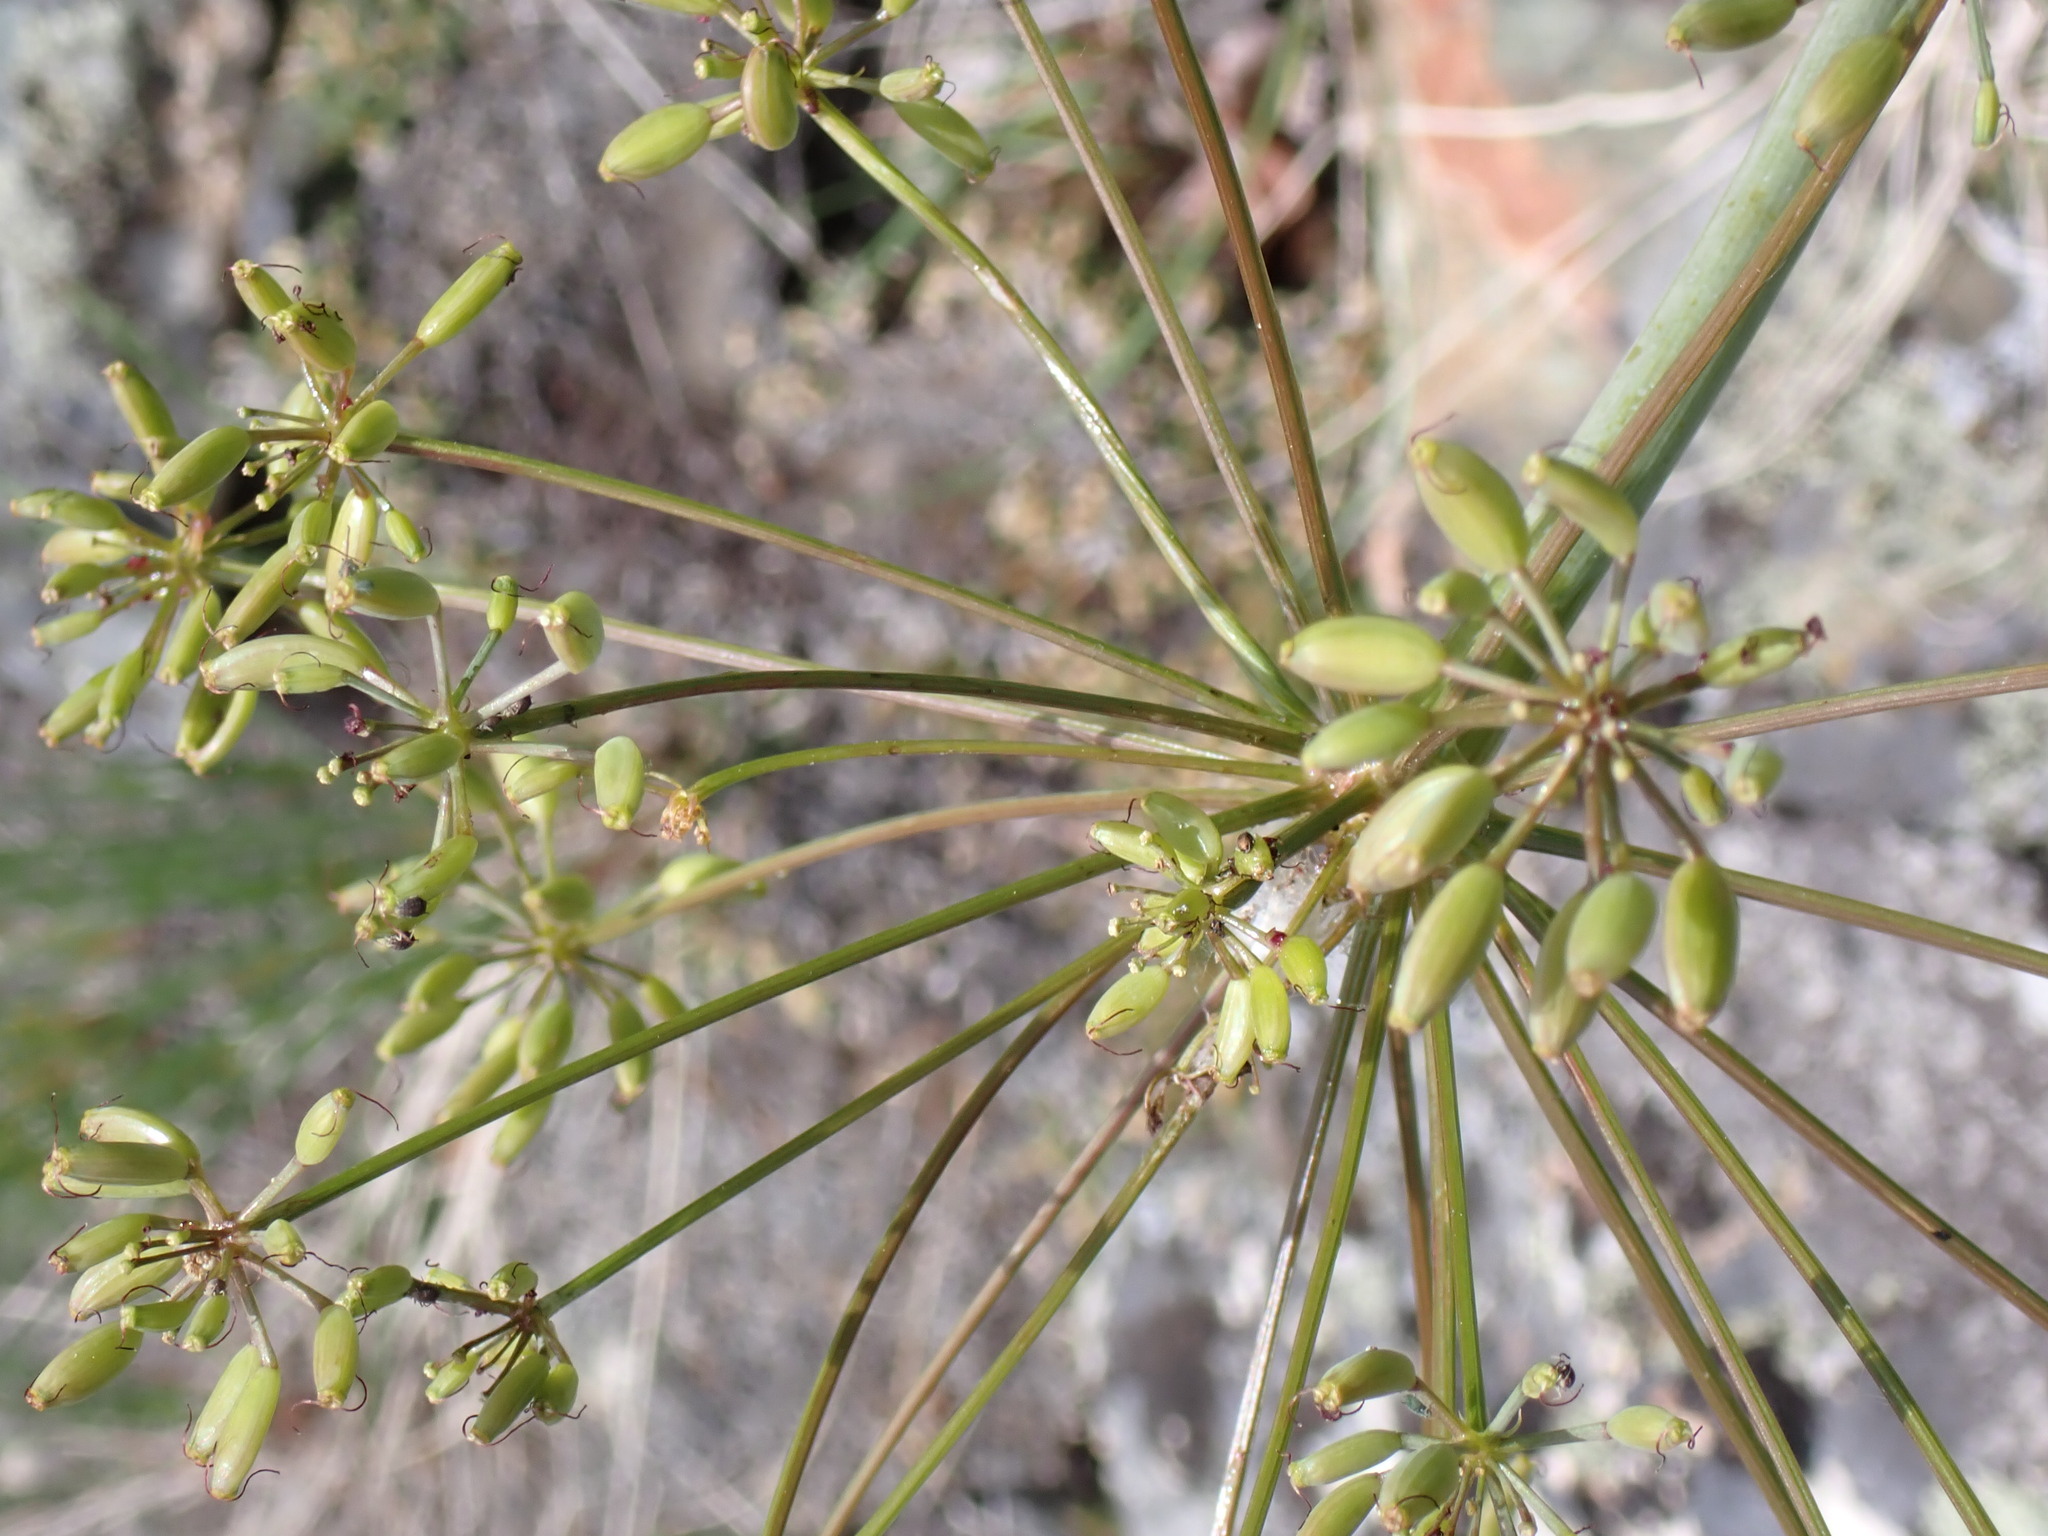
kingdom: Plantae
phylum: Tracheophyta
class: Magnoliopsida
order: Apiales
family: Apiaceae
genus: Lomatium
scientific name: Lomatium multifidum
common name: Carrot-leaved biscuitroot
